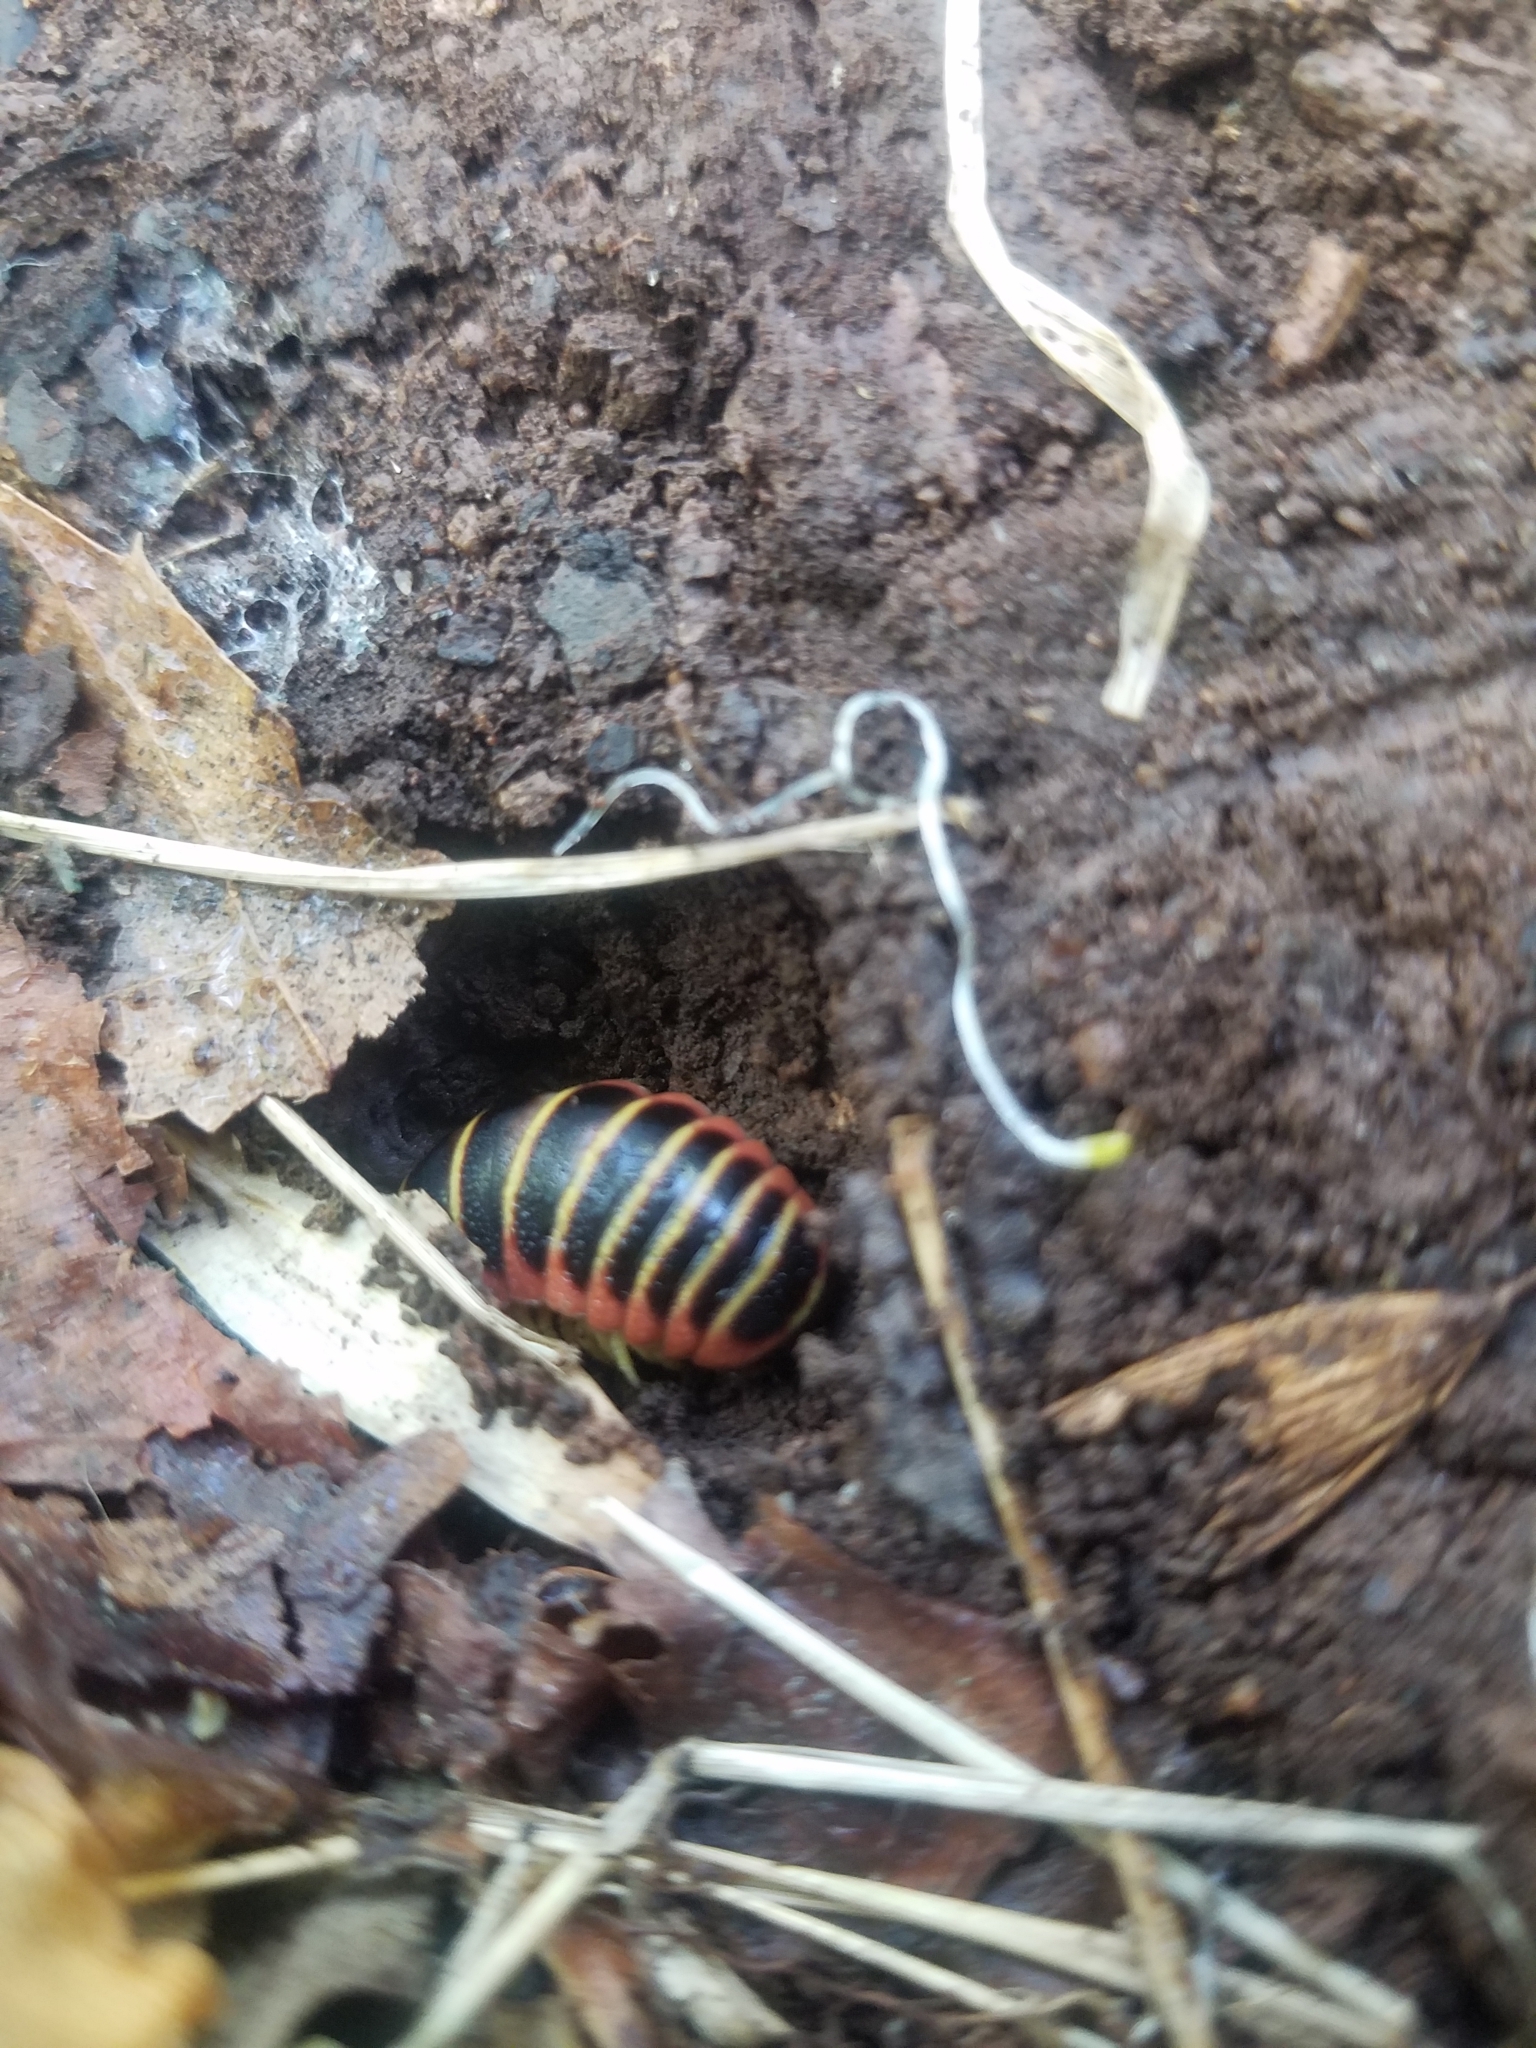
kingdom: Animalia
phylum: Arthropoda
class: Diplopoda
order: Polydesmida
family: Xystodesmidae
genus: Apheloria
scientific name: Apheloria virginiensis
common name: Black-and-gold flat millipede
